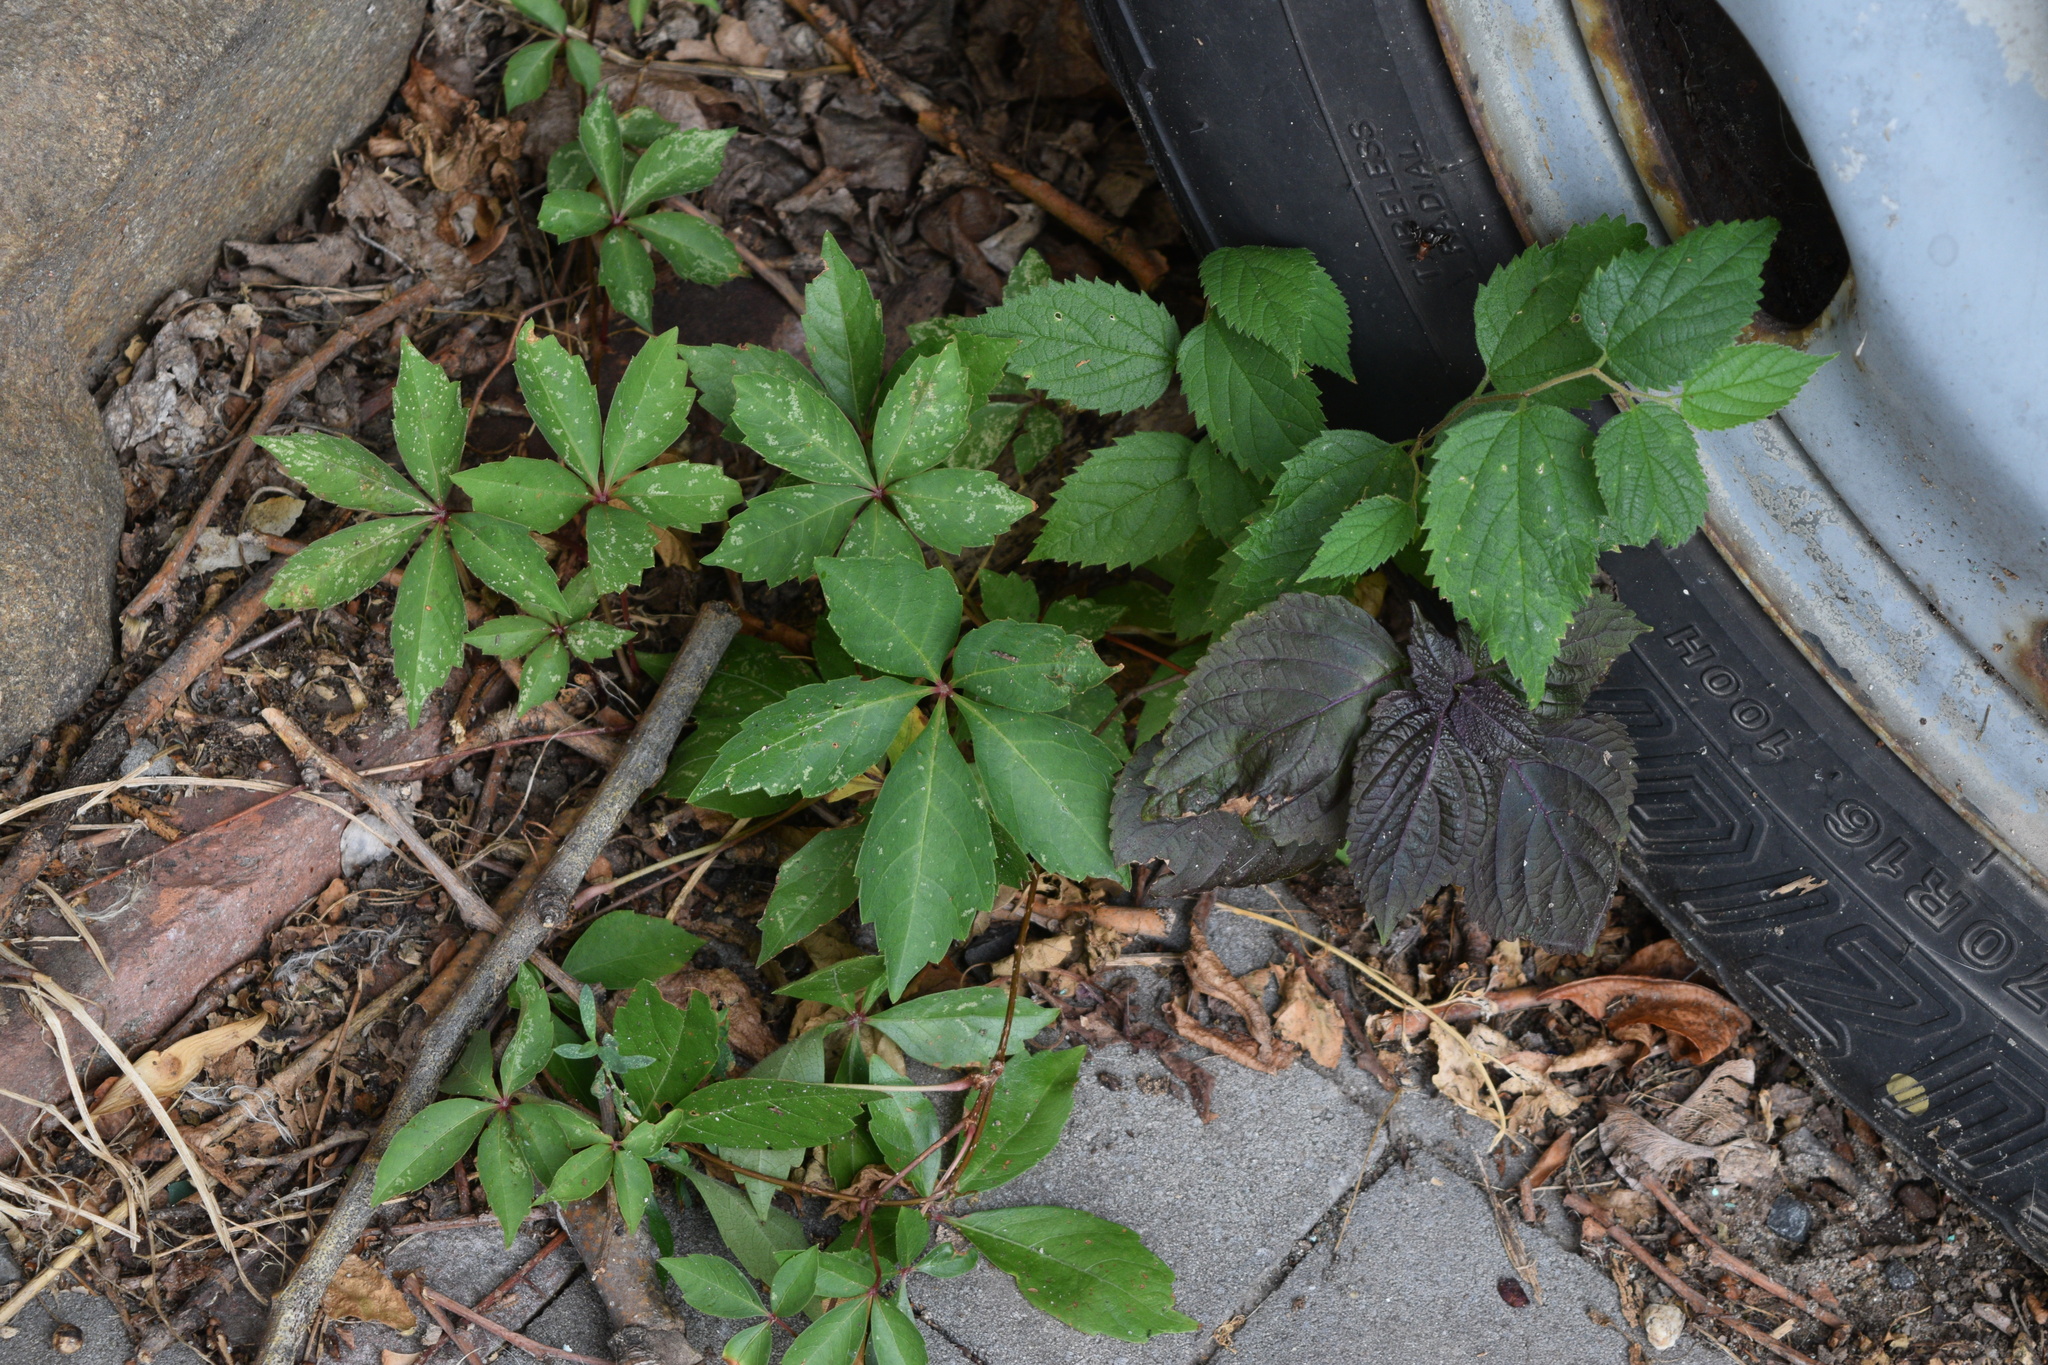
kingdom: Plantae
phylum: Tracheophyta
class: Magnoliopsida
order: Vitales
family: Vitaceae
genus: Parthenocissus
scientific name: Parthenocissus quinquefolia
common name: Virginia-creeper
